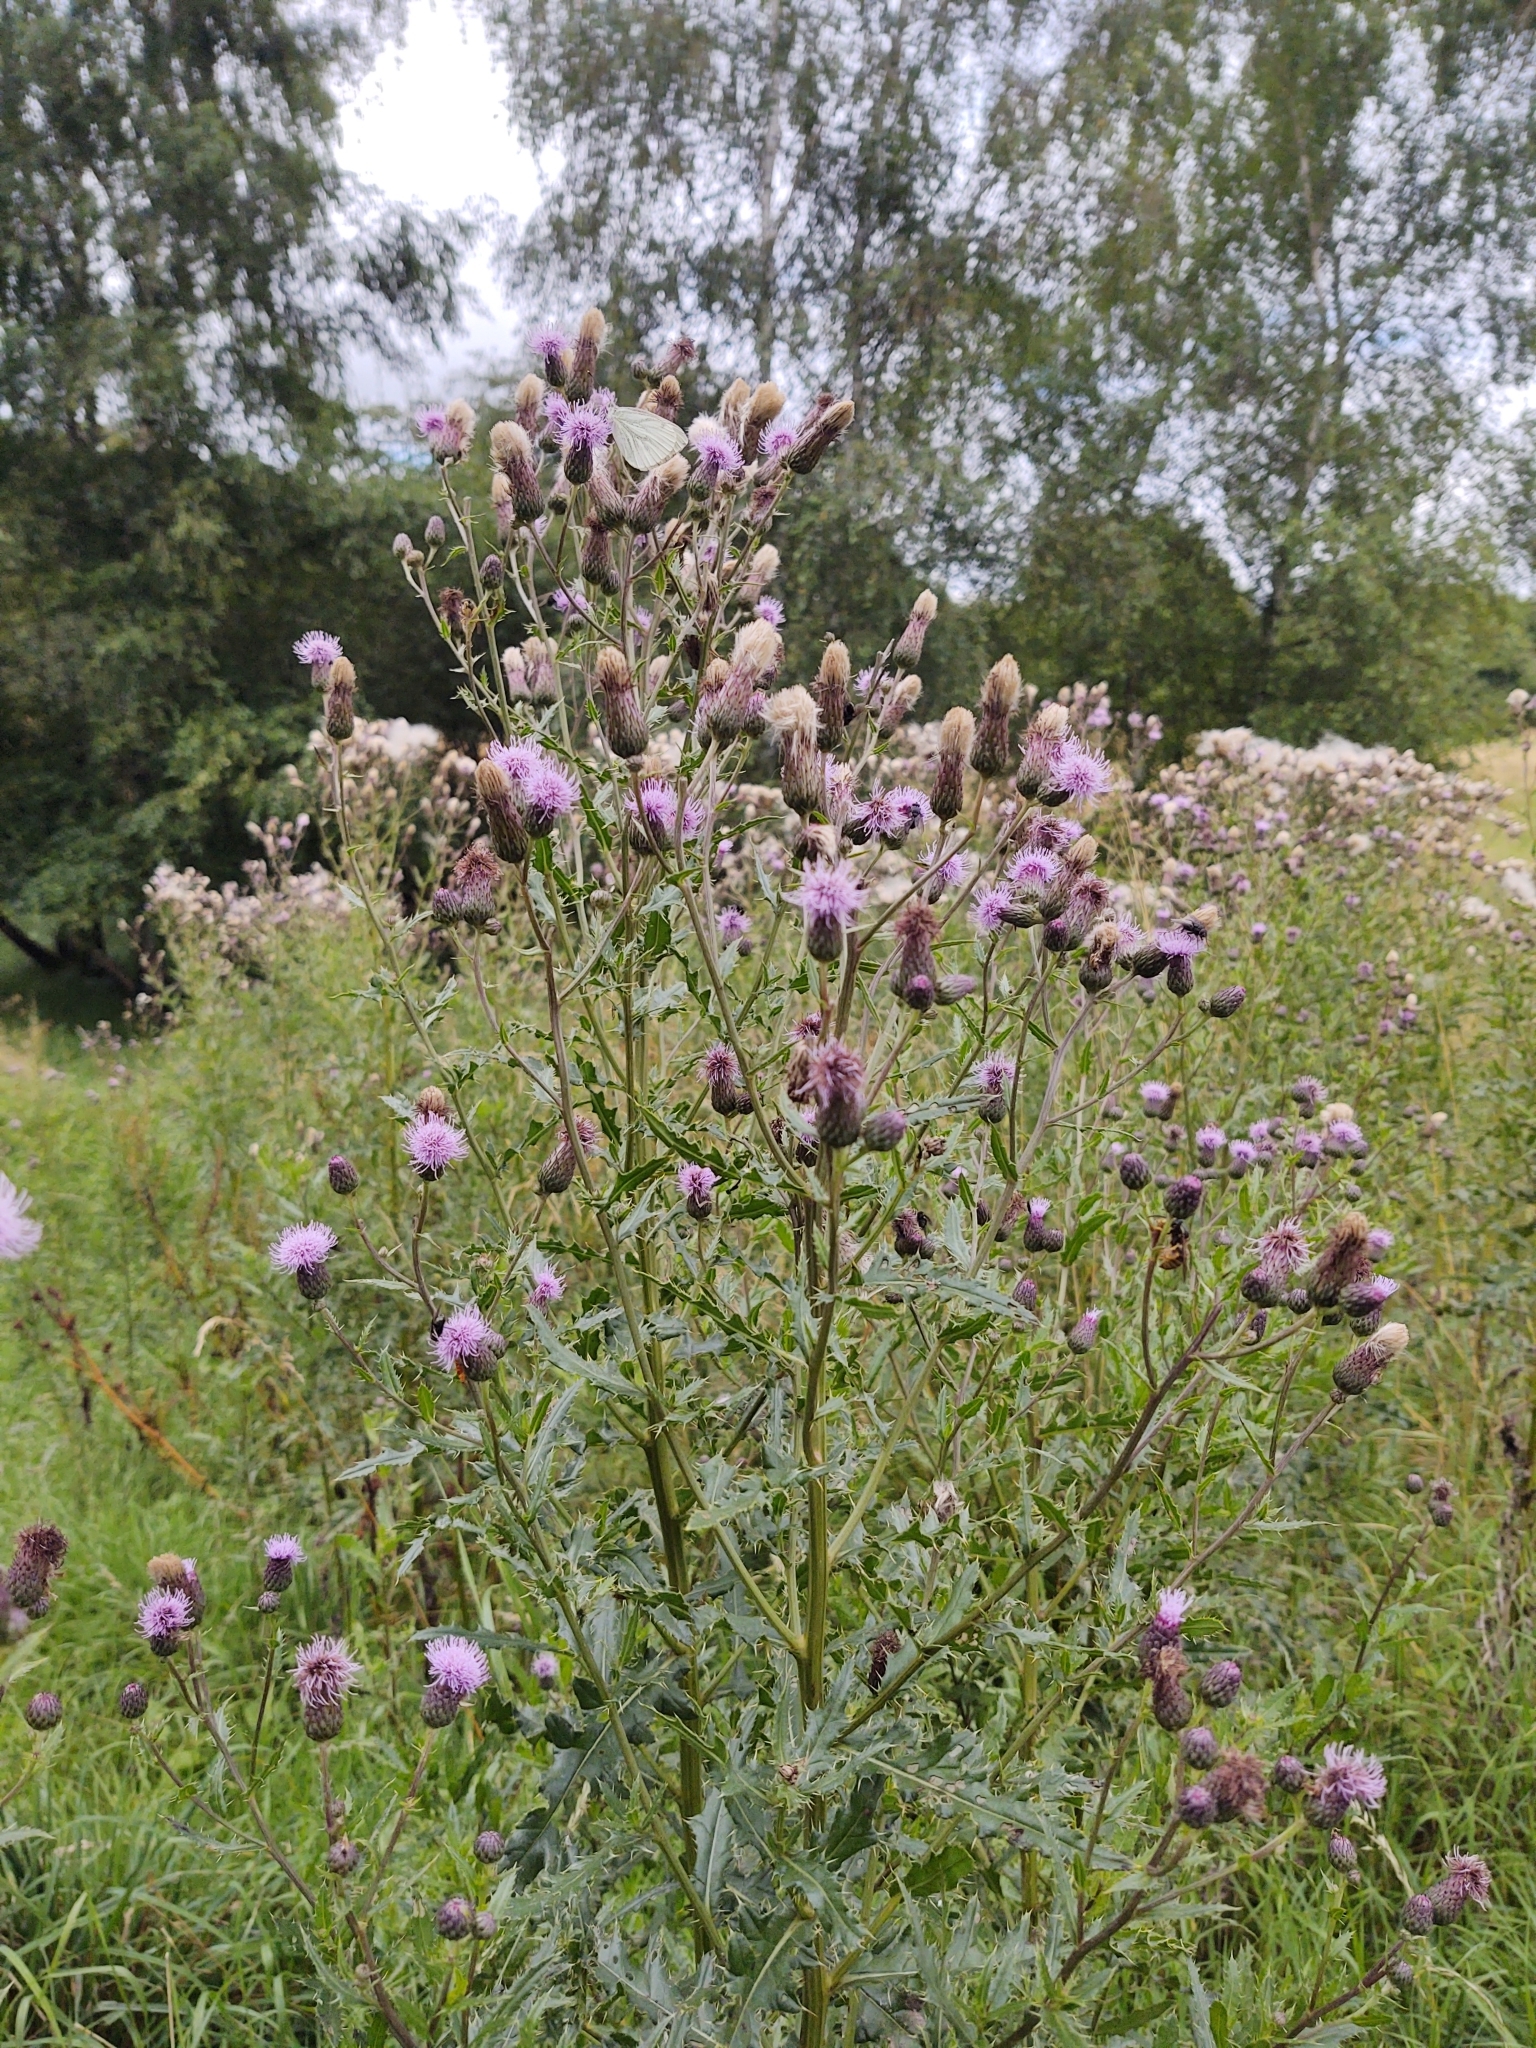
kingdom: Plantae
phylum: Tracheophyta
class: Magnoliopsida
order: Asterales
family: Asteraceae
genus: Cirsium
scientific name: Cirsium arvense
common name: Creeping thistle
